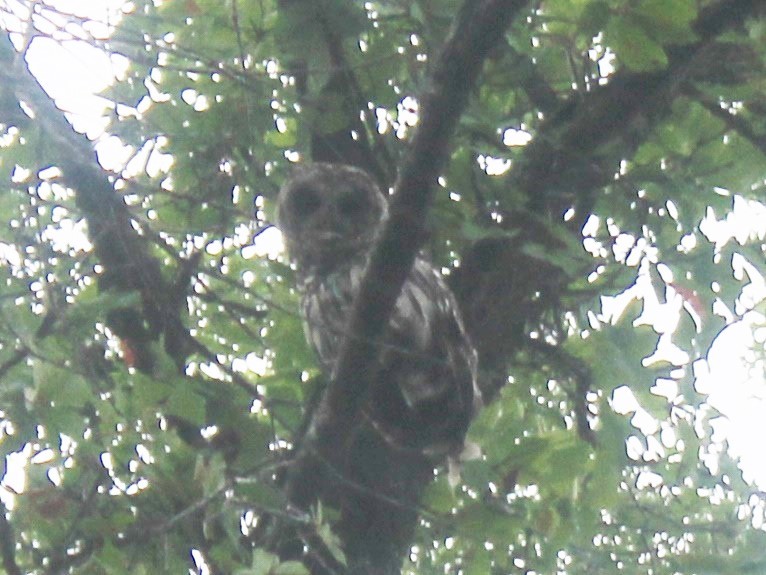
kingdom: Animalia
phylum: Chordata
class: Aves
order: Strigiformes
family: Strigidae
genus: Strix
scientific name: Strix varia
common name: Barred owl
